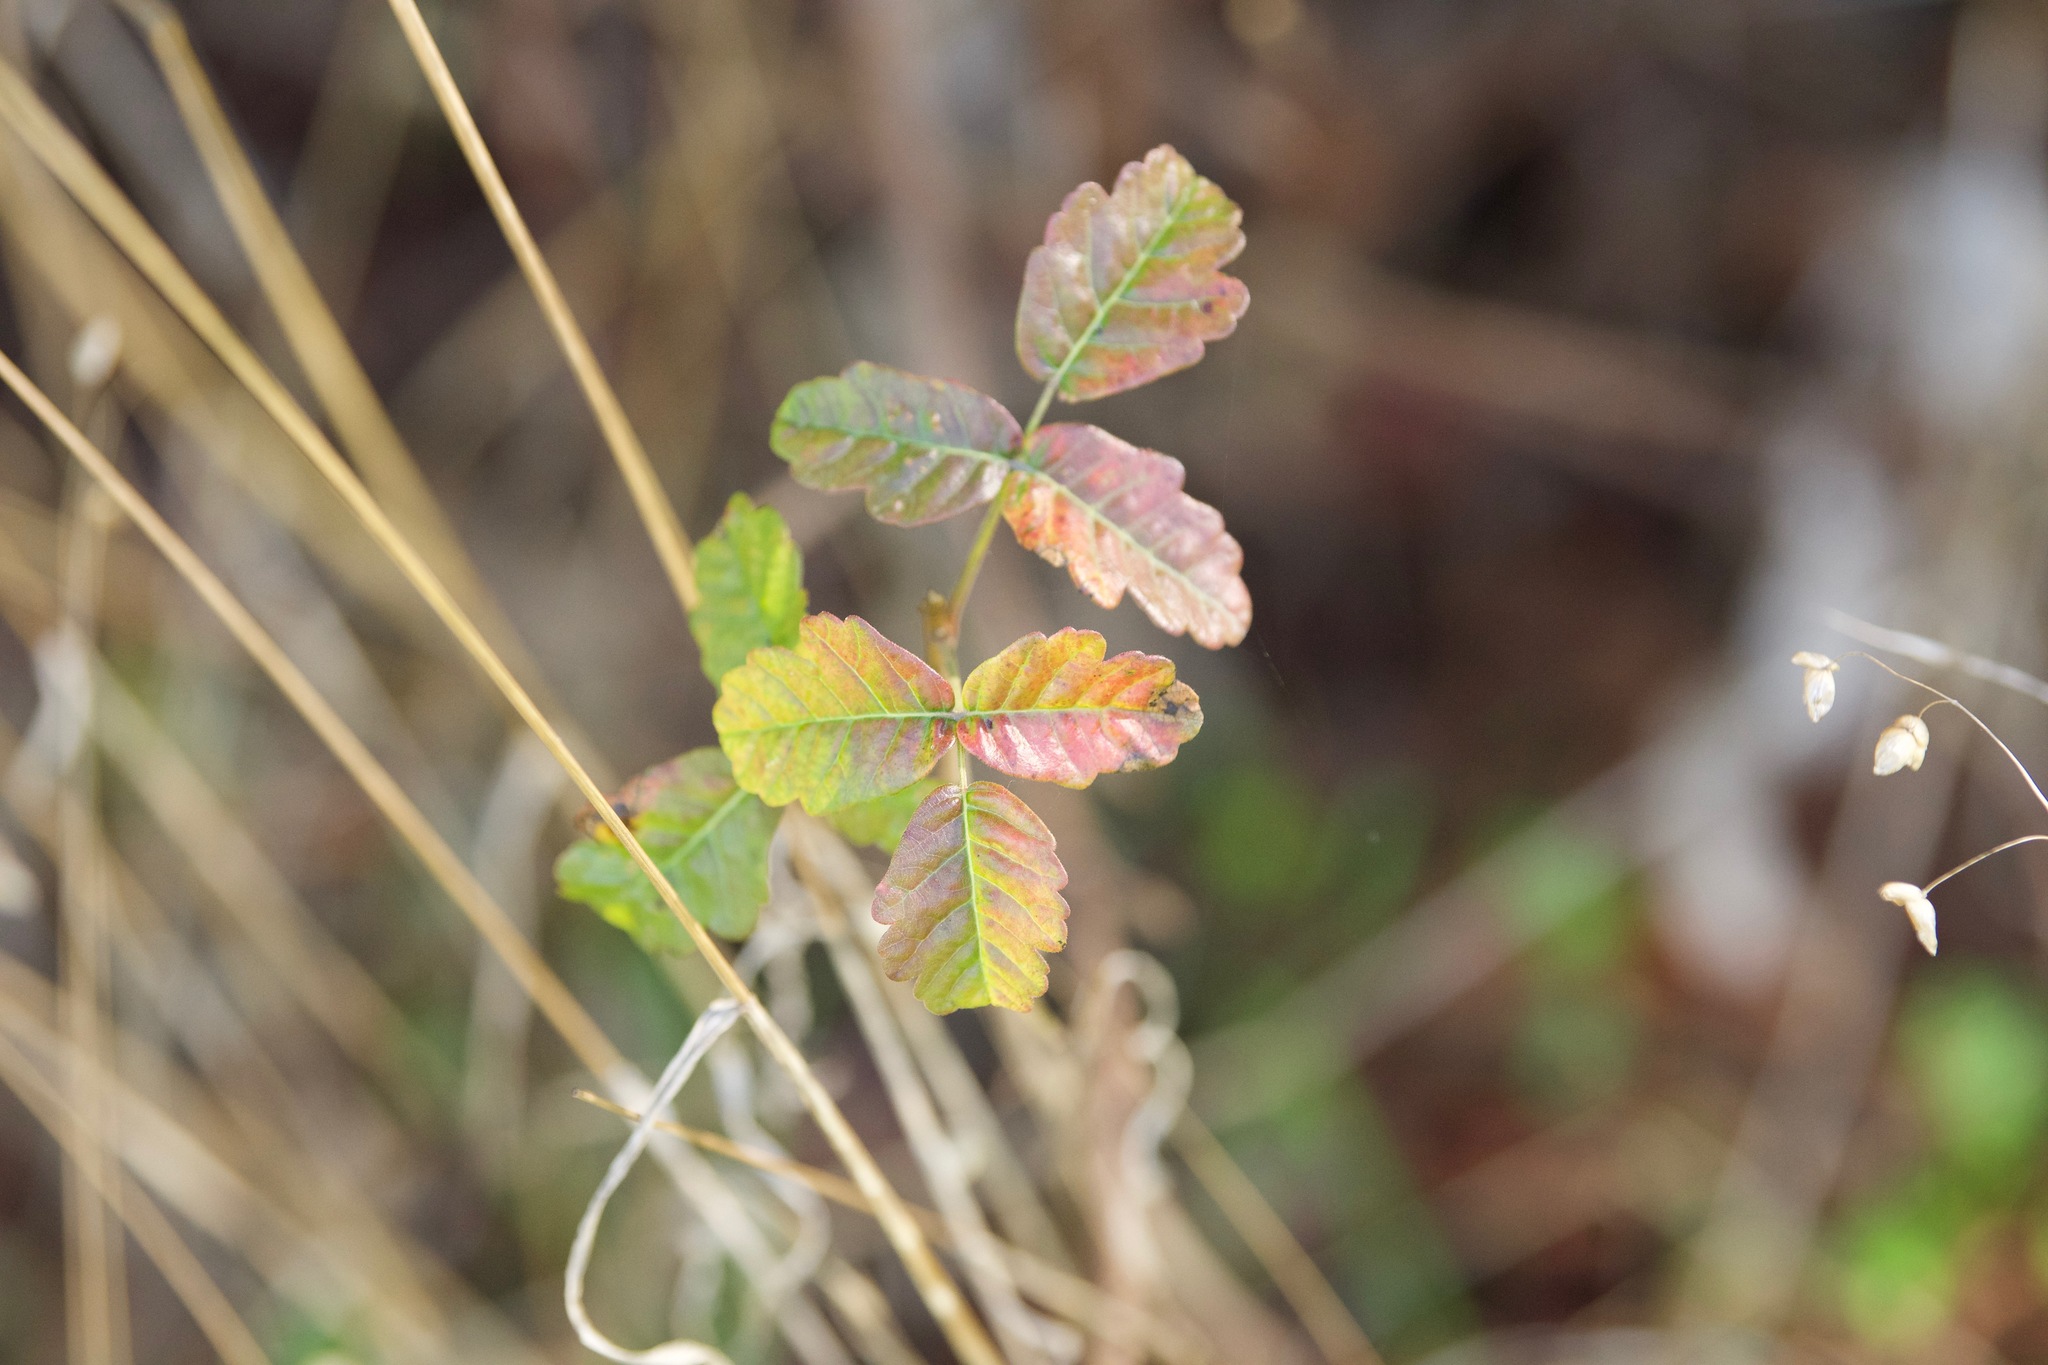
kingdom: Plantae
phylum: Tracheophyta
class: Magnoliopsida
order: Sapindales
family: Anacardiaceae
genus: Toxicodendron
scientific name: Toxicodendron diversilobum
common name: Pacific poison-oak
